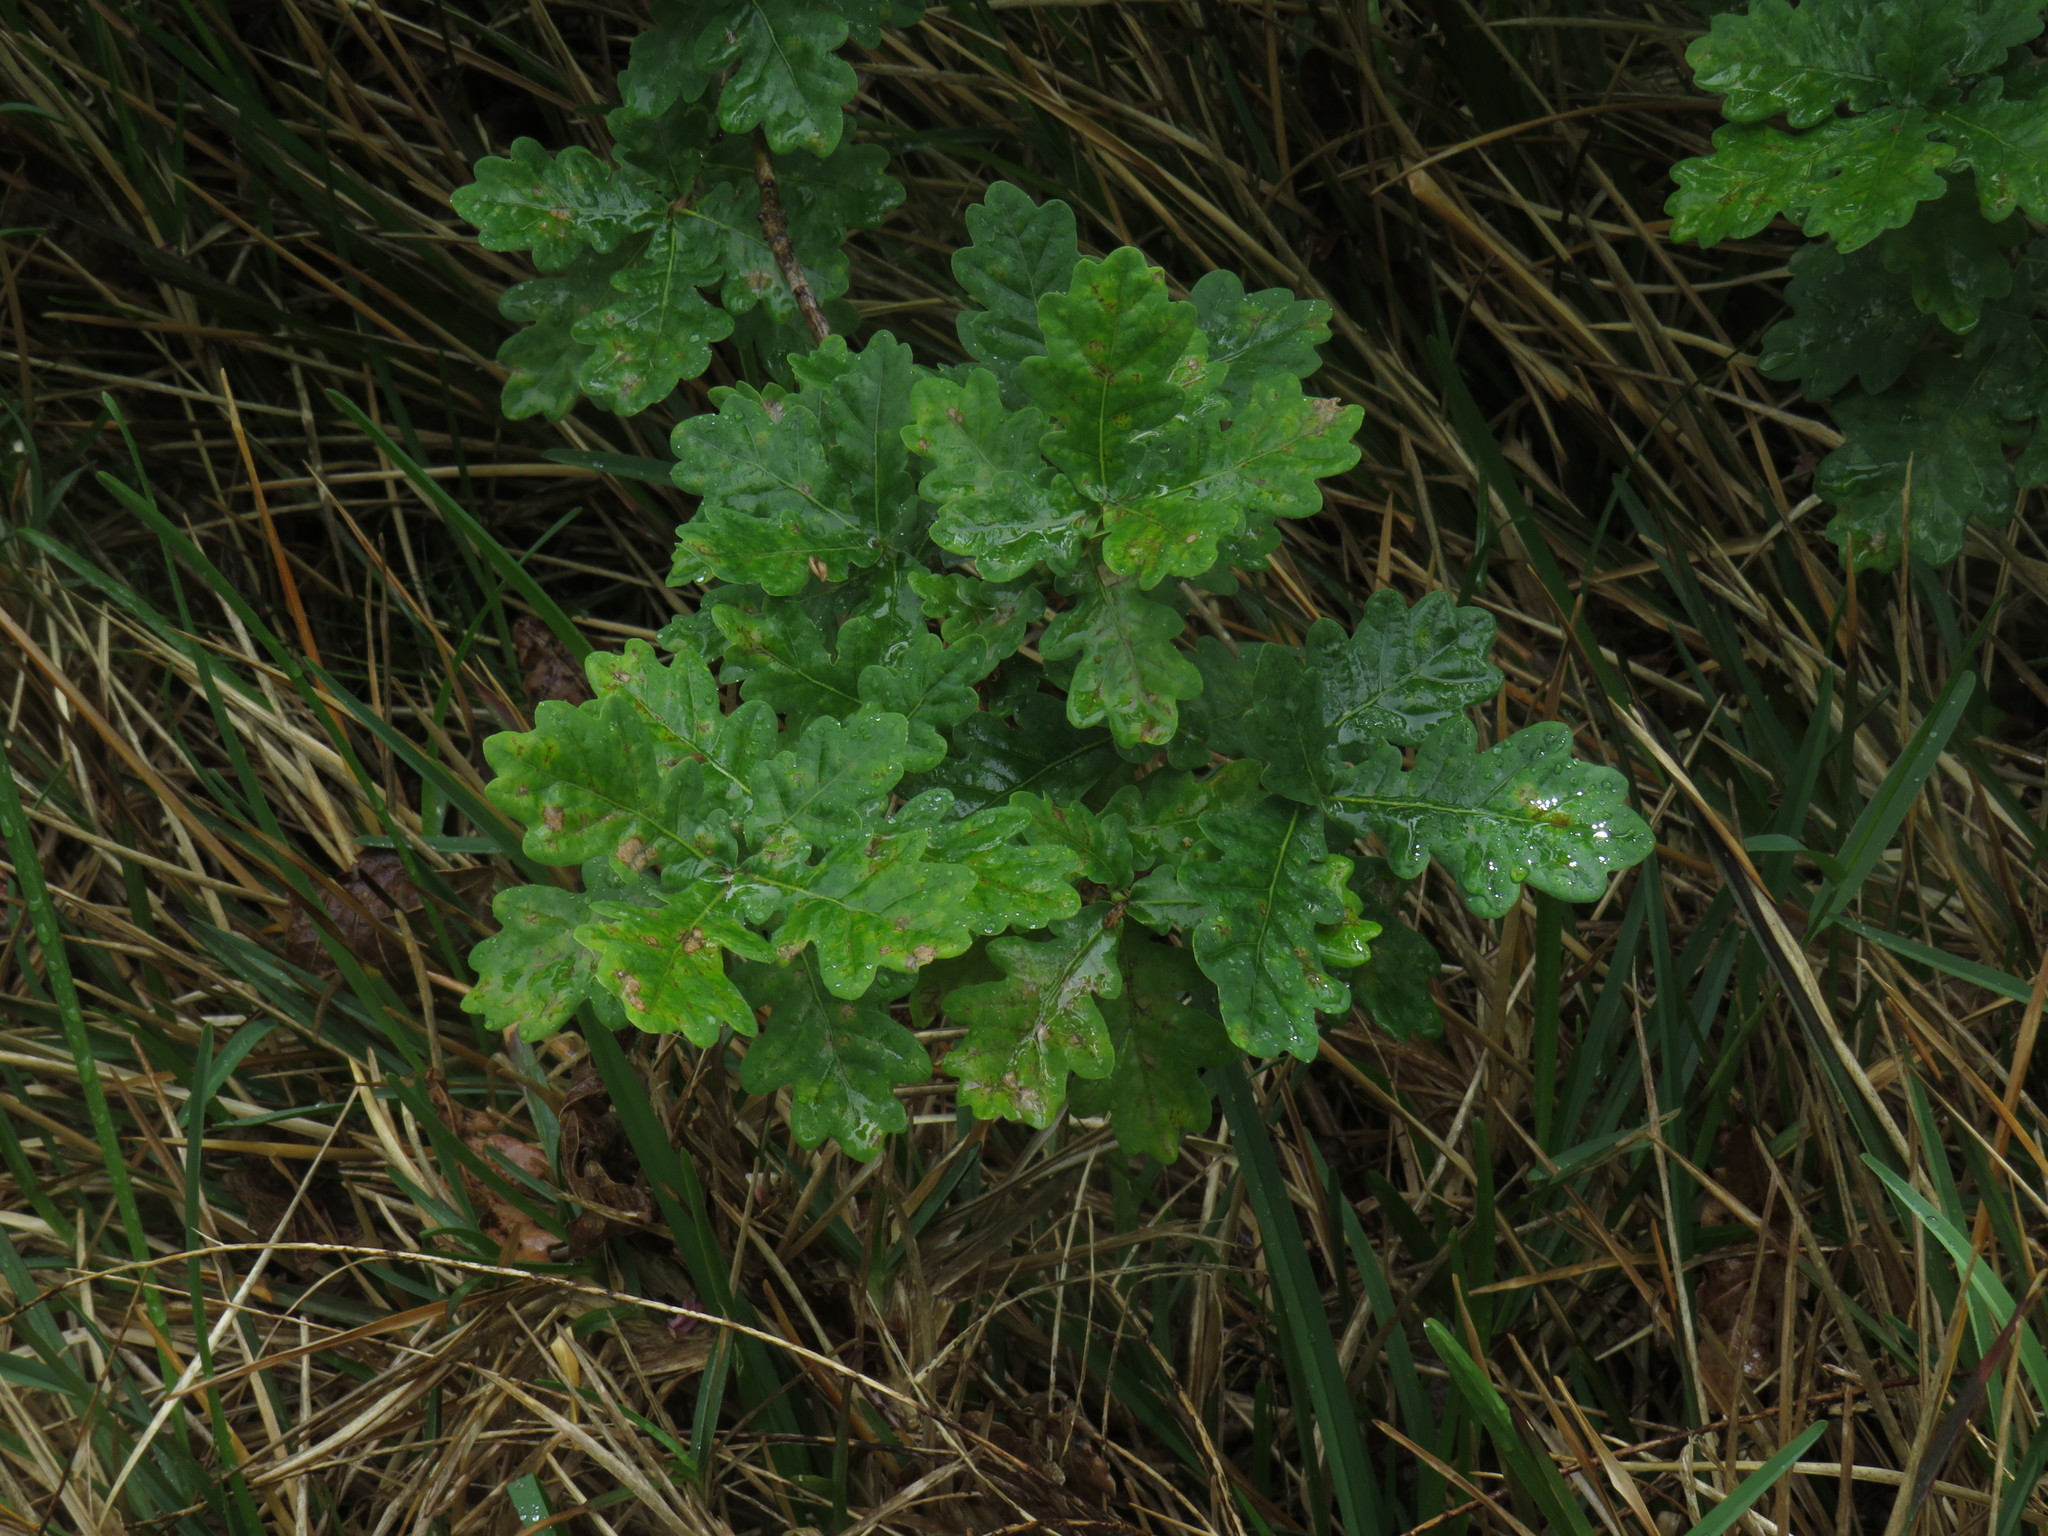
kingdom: Plantae
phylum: Tracheophyta
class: Magnoliopsida
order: Fagales
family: Fagaceae
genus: Quercus
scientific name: Quercus robur
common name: Pedunculate oak
